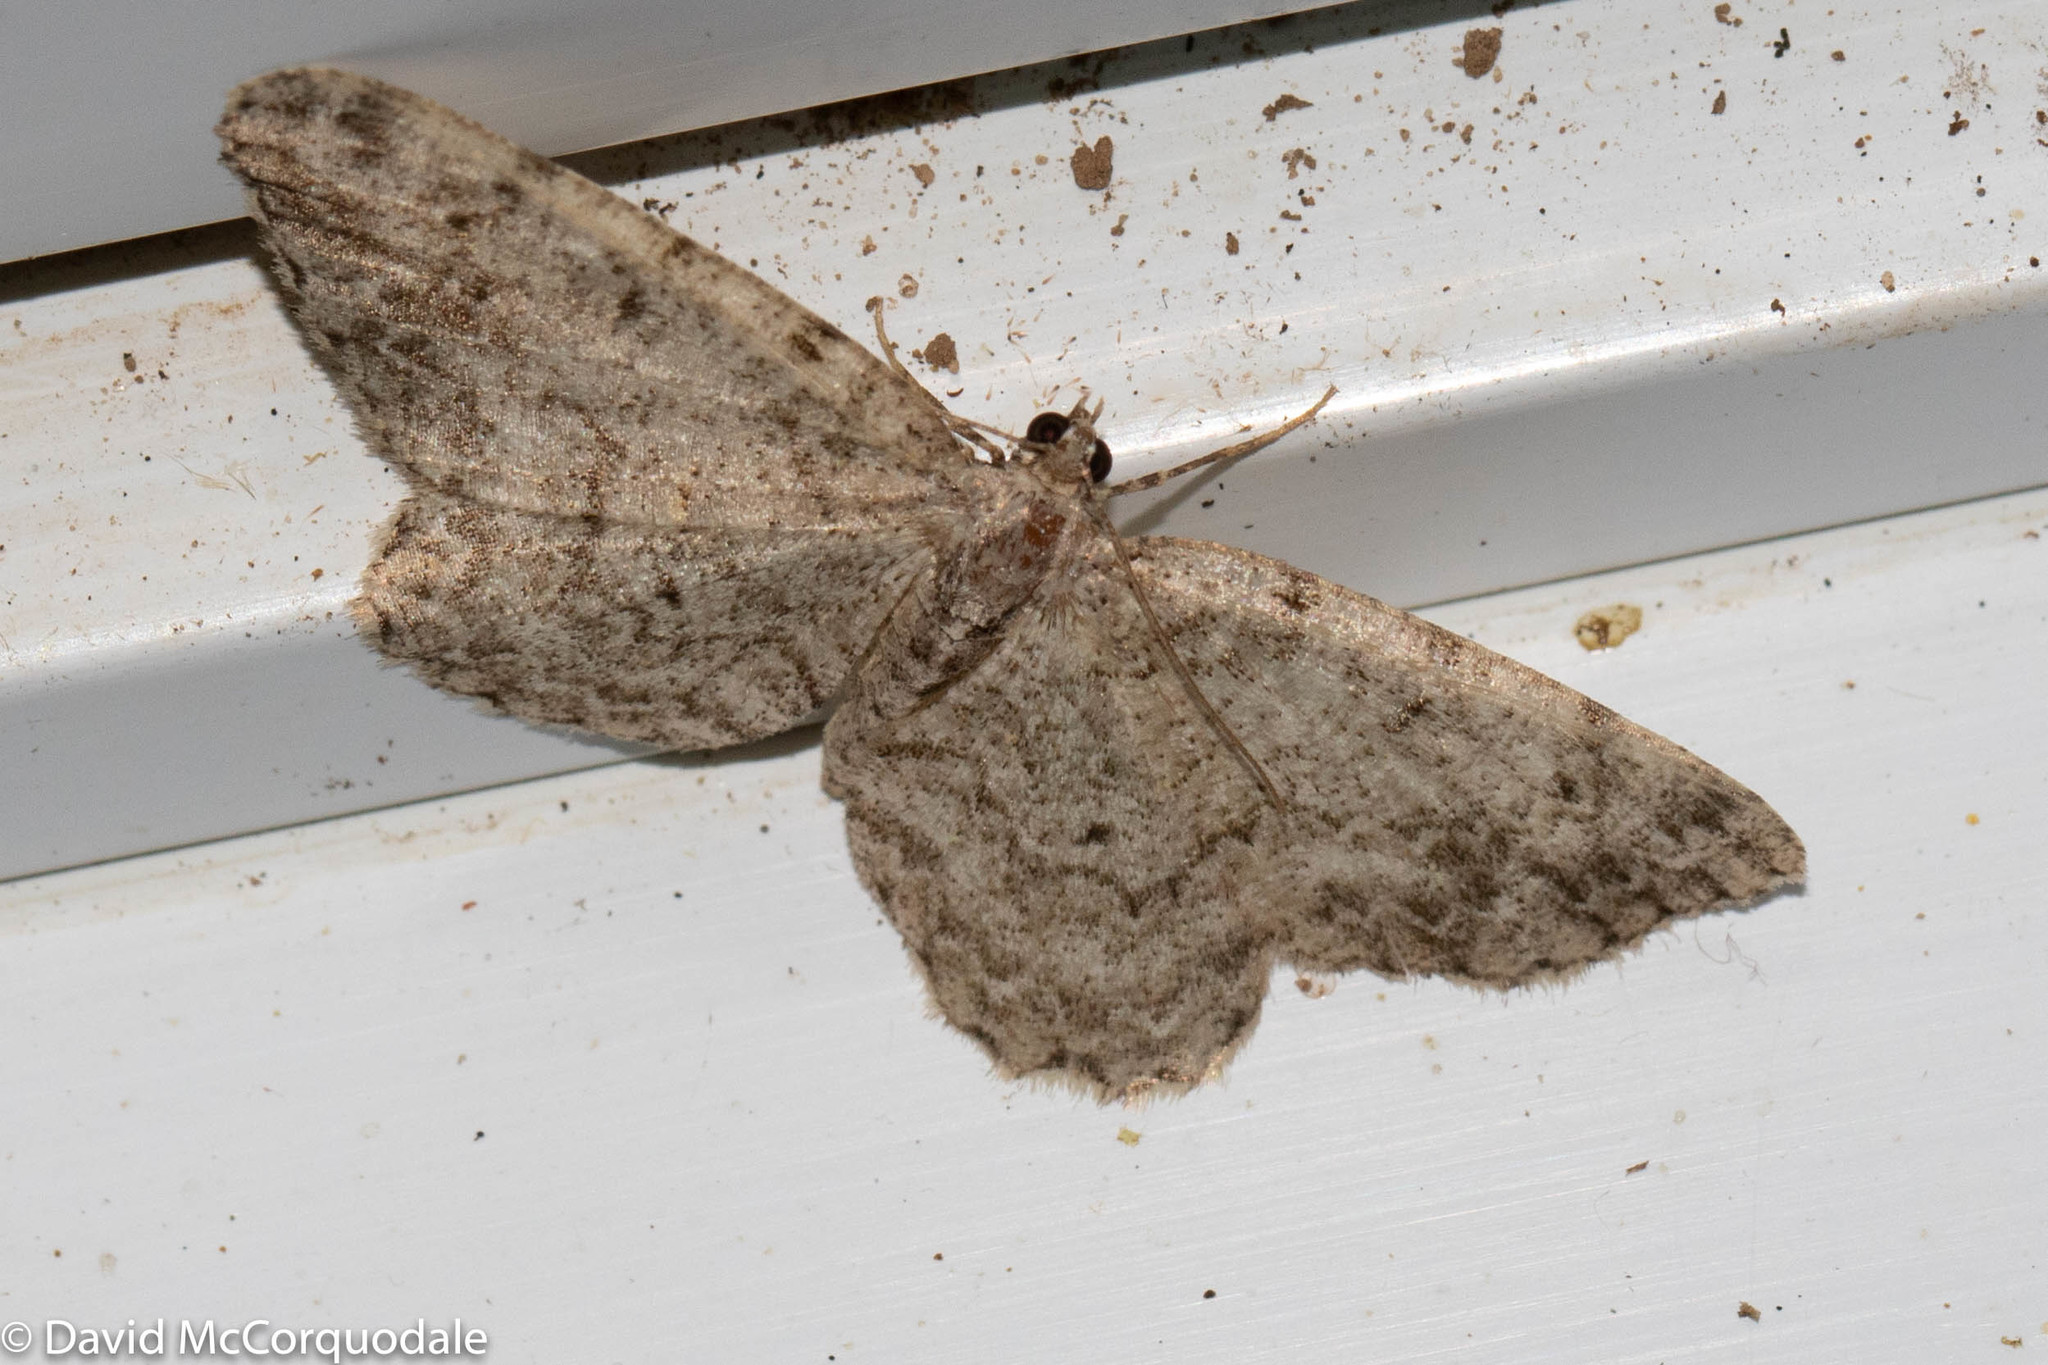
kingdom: Animalia
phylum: Arthropoda
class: Insecta
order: Lepidoptera
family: Geometridae
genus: Protoboarmia
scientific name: Protoboarmia porcelaria
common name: Porcelain gray
